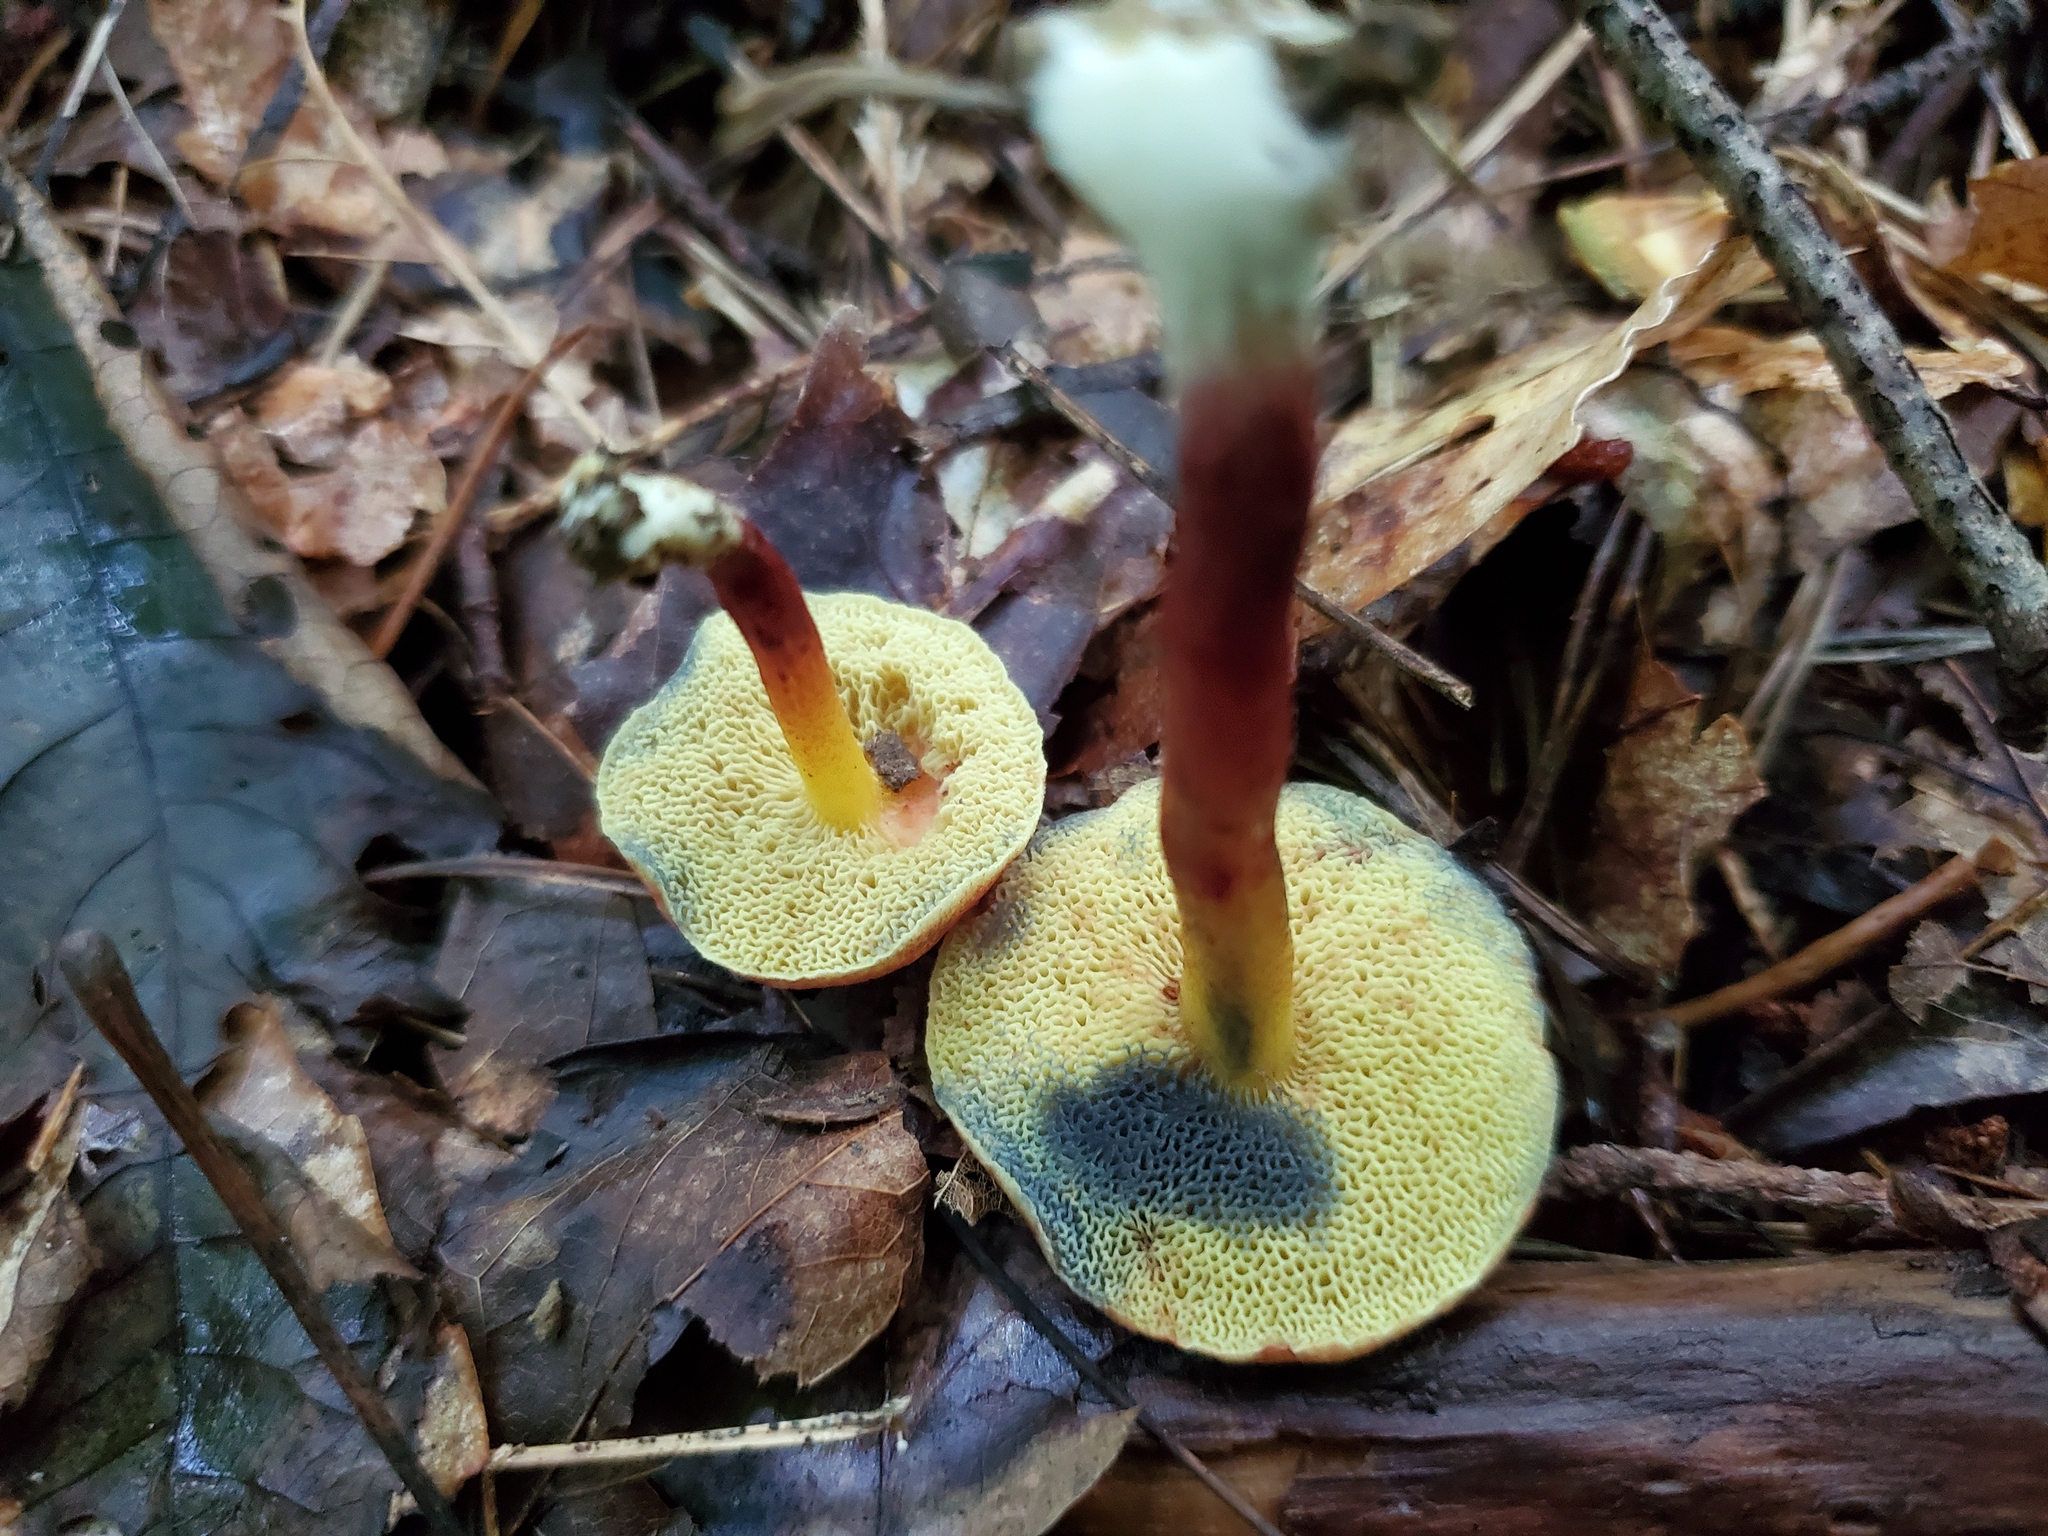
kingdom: Fungi
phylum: Basidiomycota
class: Agaricomycetes
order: Boletales
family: Boletaceae
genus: Hortiboletus
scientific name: Hortiboletus rubellus
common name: Ruby bolete
